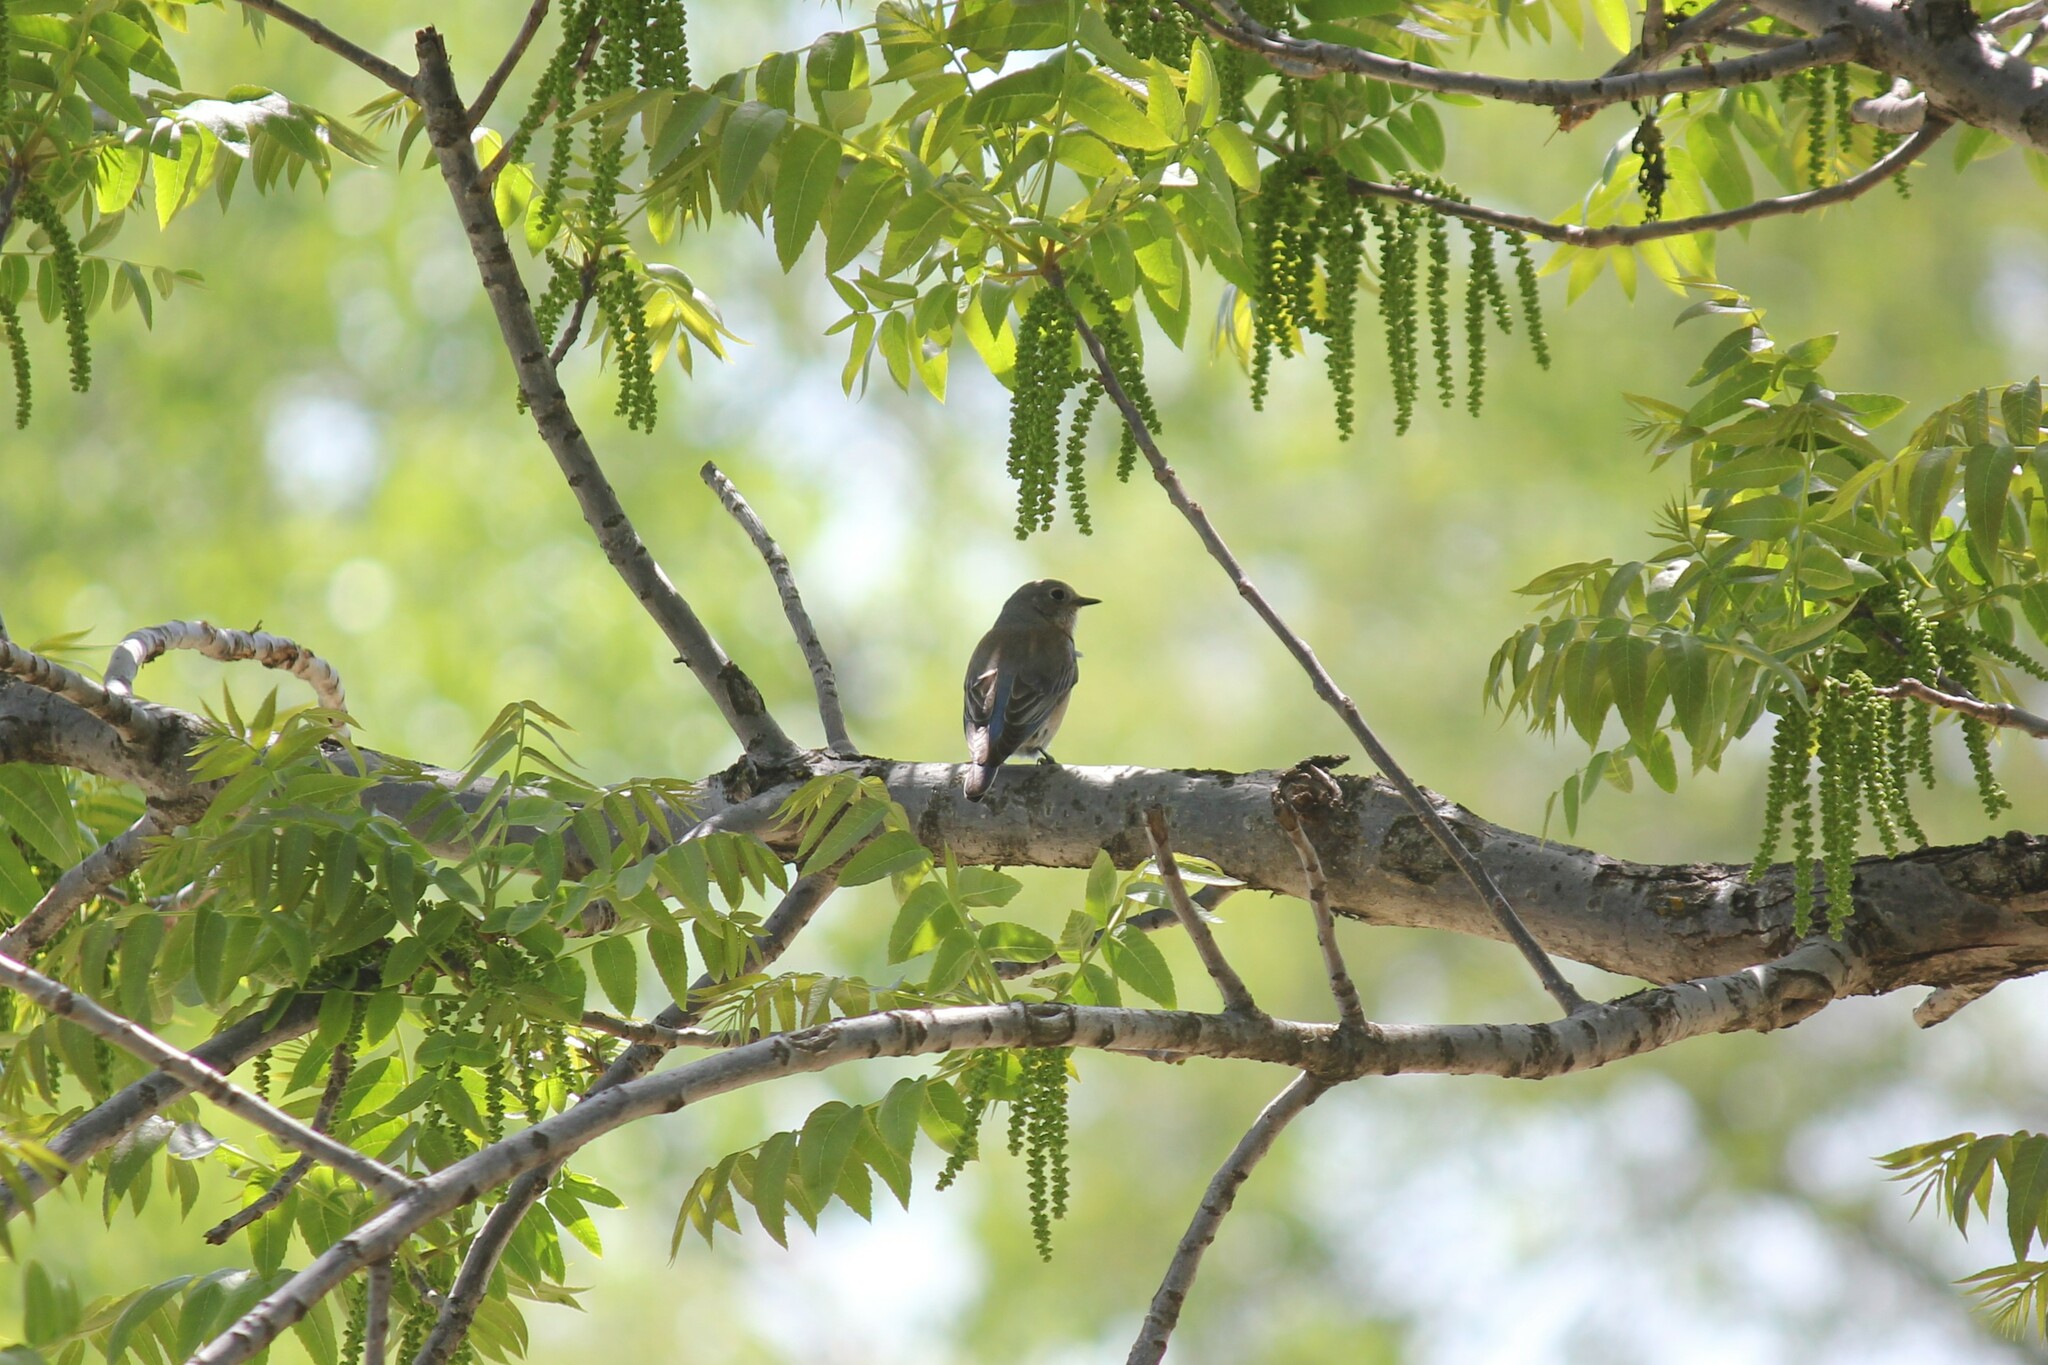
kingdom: Animalia
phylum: Chordata
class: Aves
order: Passeriformes
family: Turdidae
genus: Sialia
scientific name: Sialia mexicana
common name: Western bluebird
